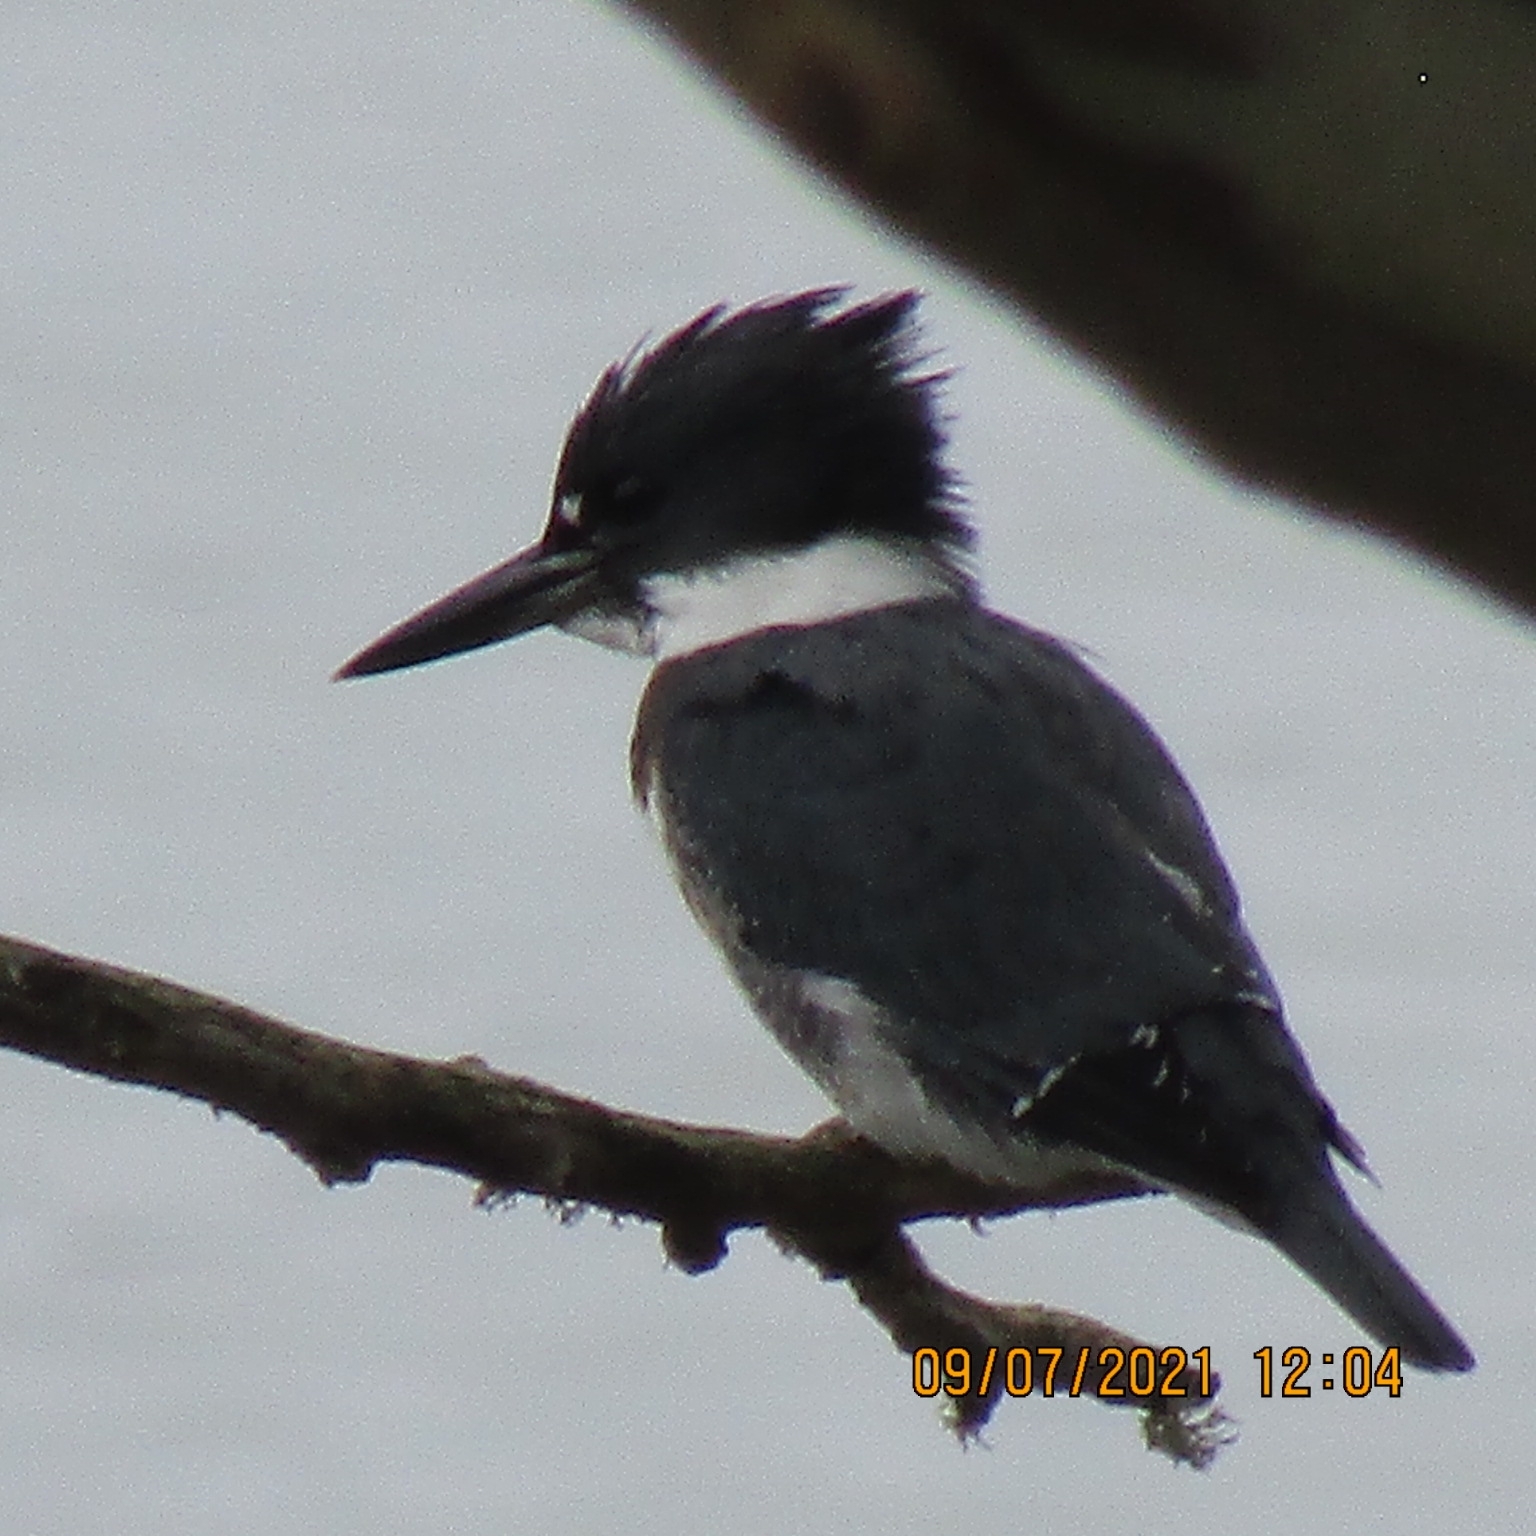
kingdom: Animalia
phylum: Chordata
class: Aves
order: Coraciiformes
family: Alcedinidae
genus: Megaceryle
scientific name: Megaceryle alcyon
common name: Belted kingfisher
